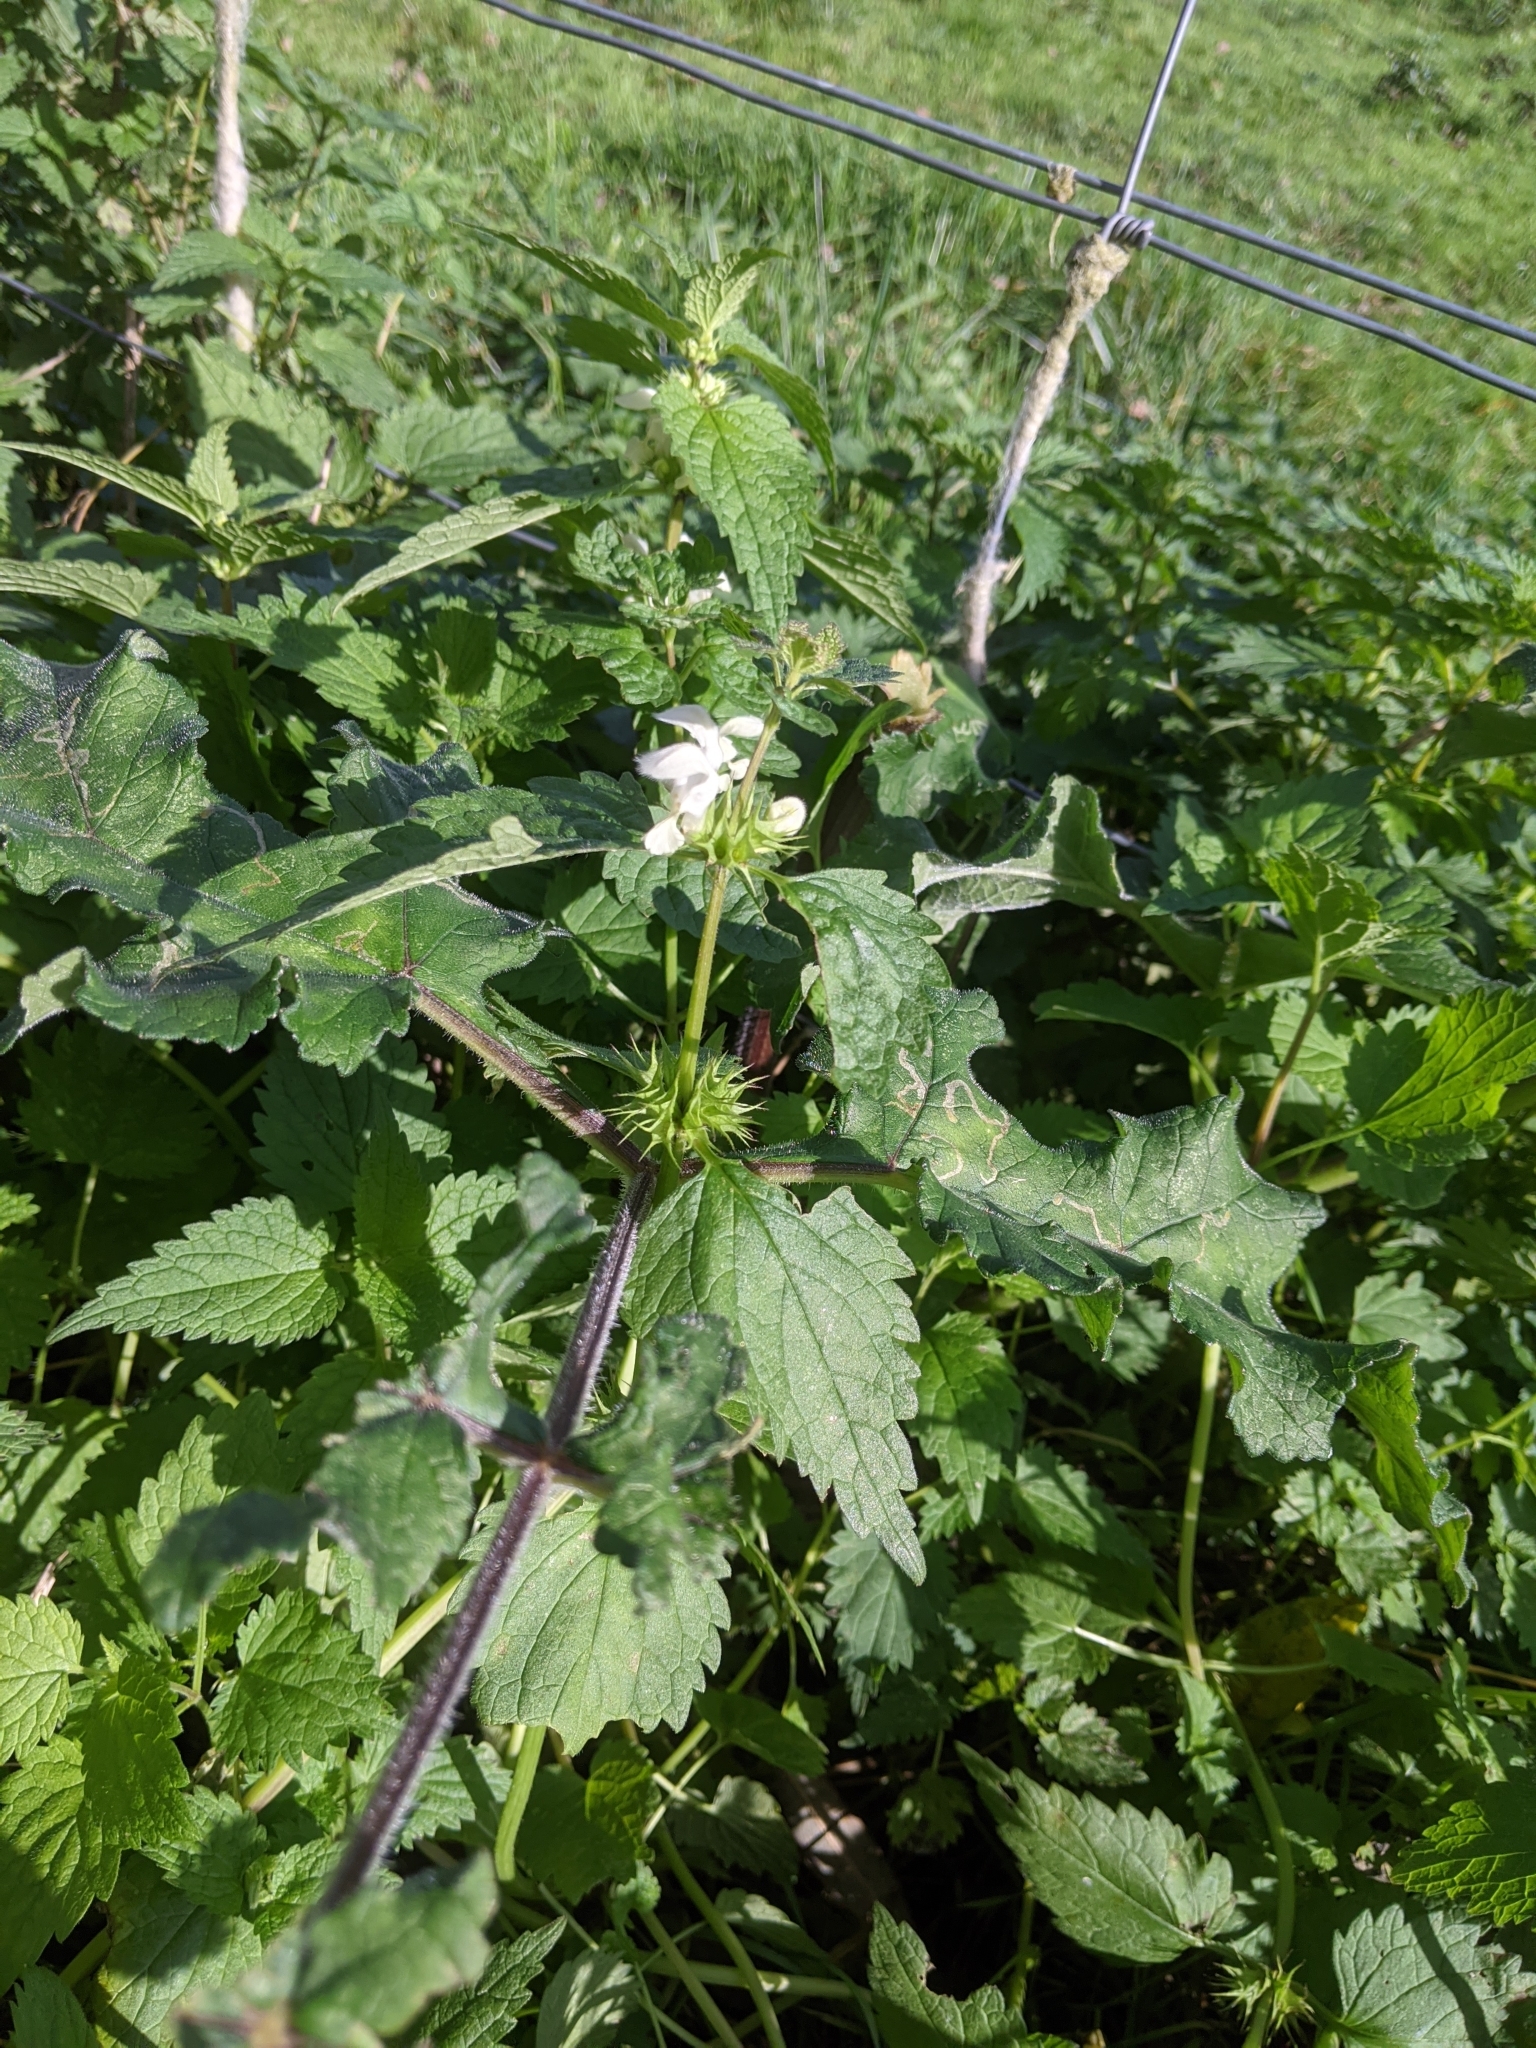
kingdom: Plantae
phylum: Tracheophyta
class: Magnoliopsida
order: Lamiales
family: Lamiaceae
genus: Lamium
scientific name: Lamium album
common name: White dead-nettle
